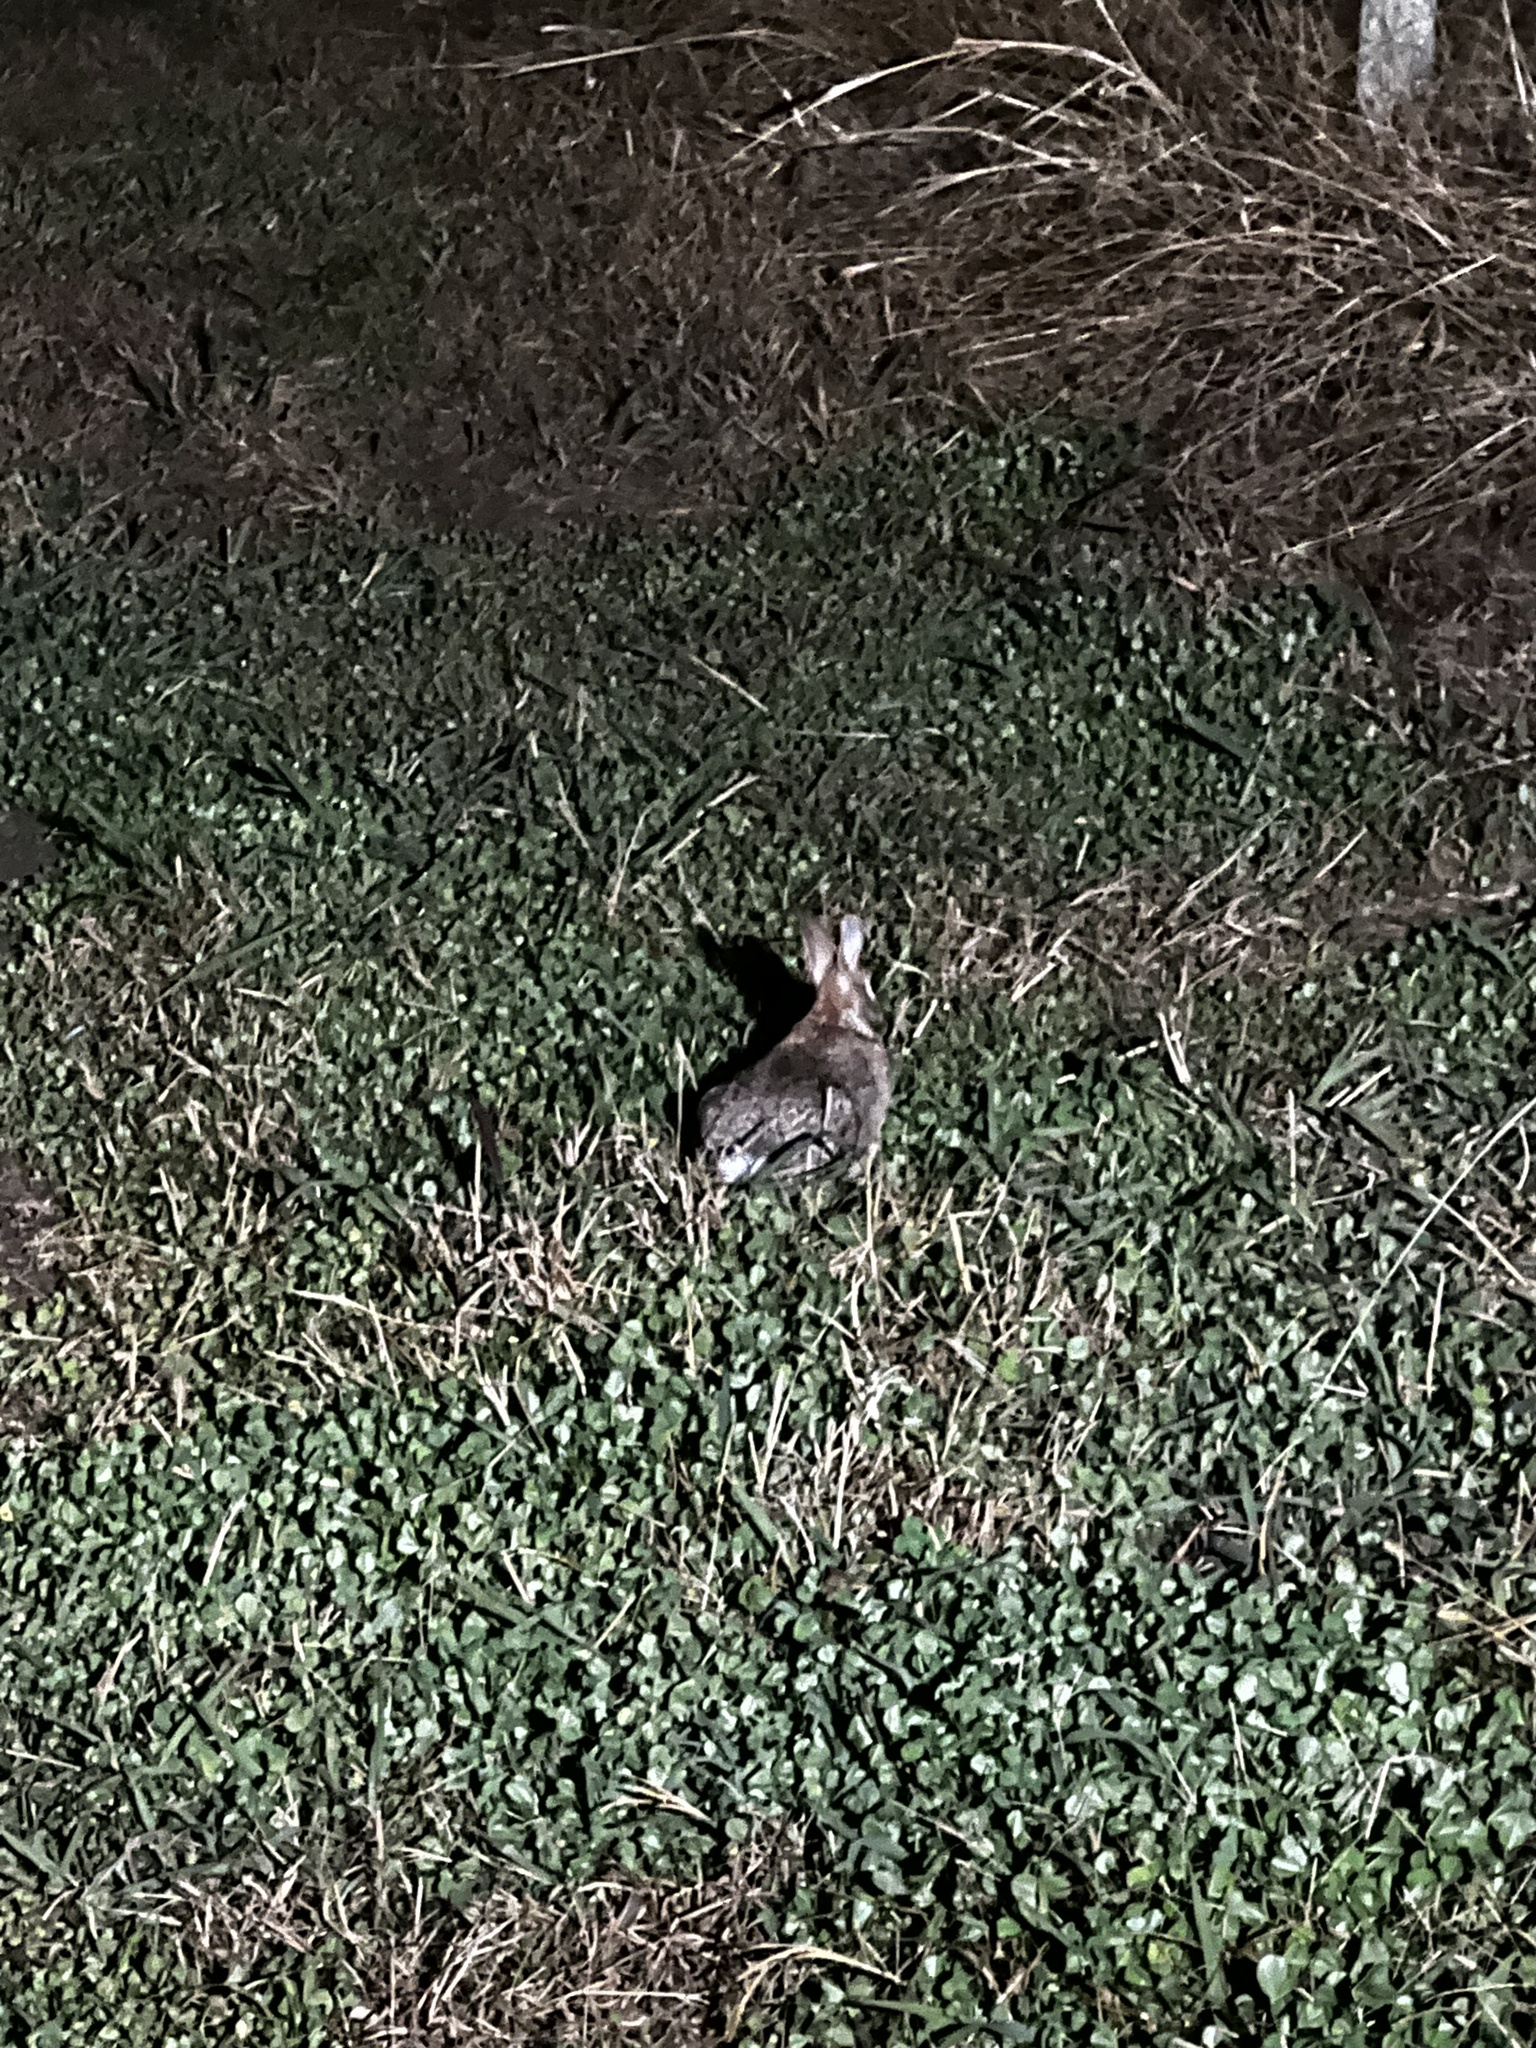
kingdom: Animalia
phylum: Chordata
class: Mammalia
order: Lagomorpha
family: Leporidae
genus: Sylvilagus
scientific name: Sylvilagus floridanus
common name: Eastern cottontail
